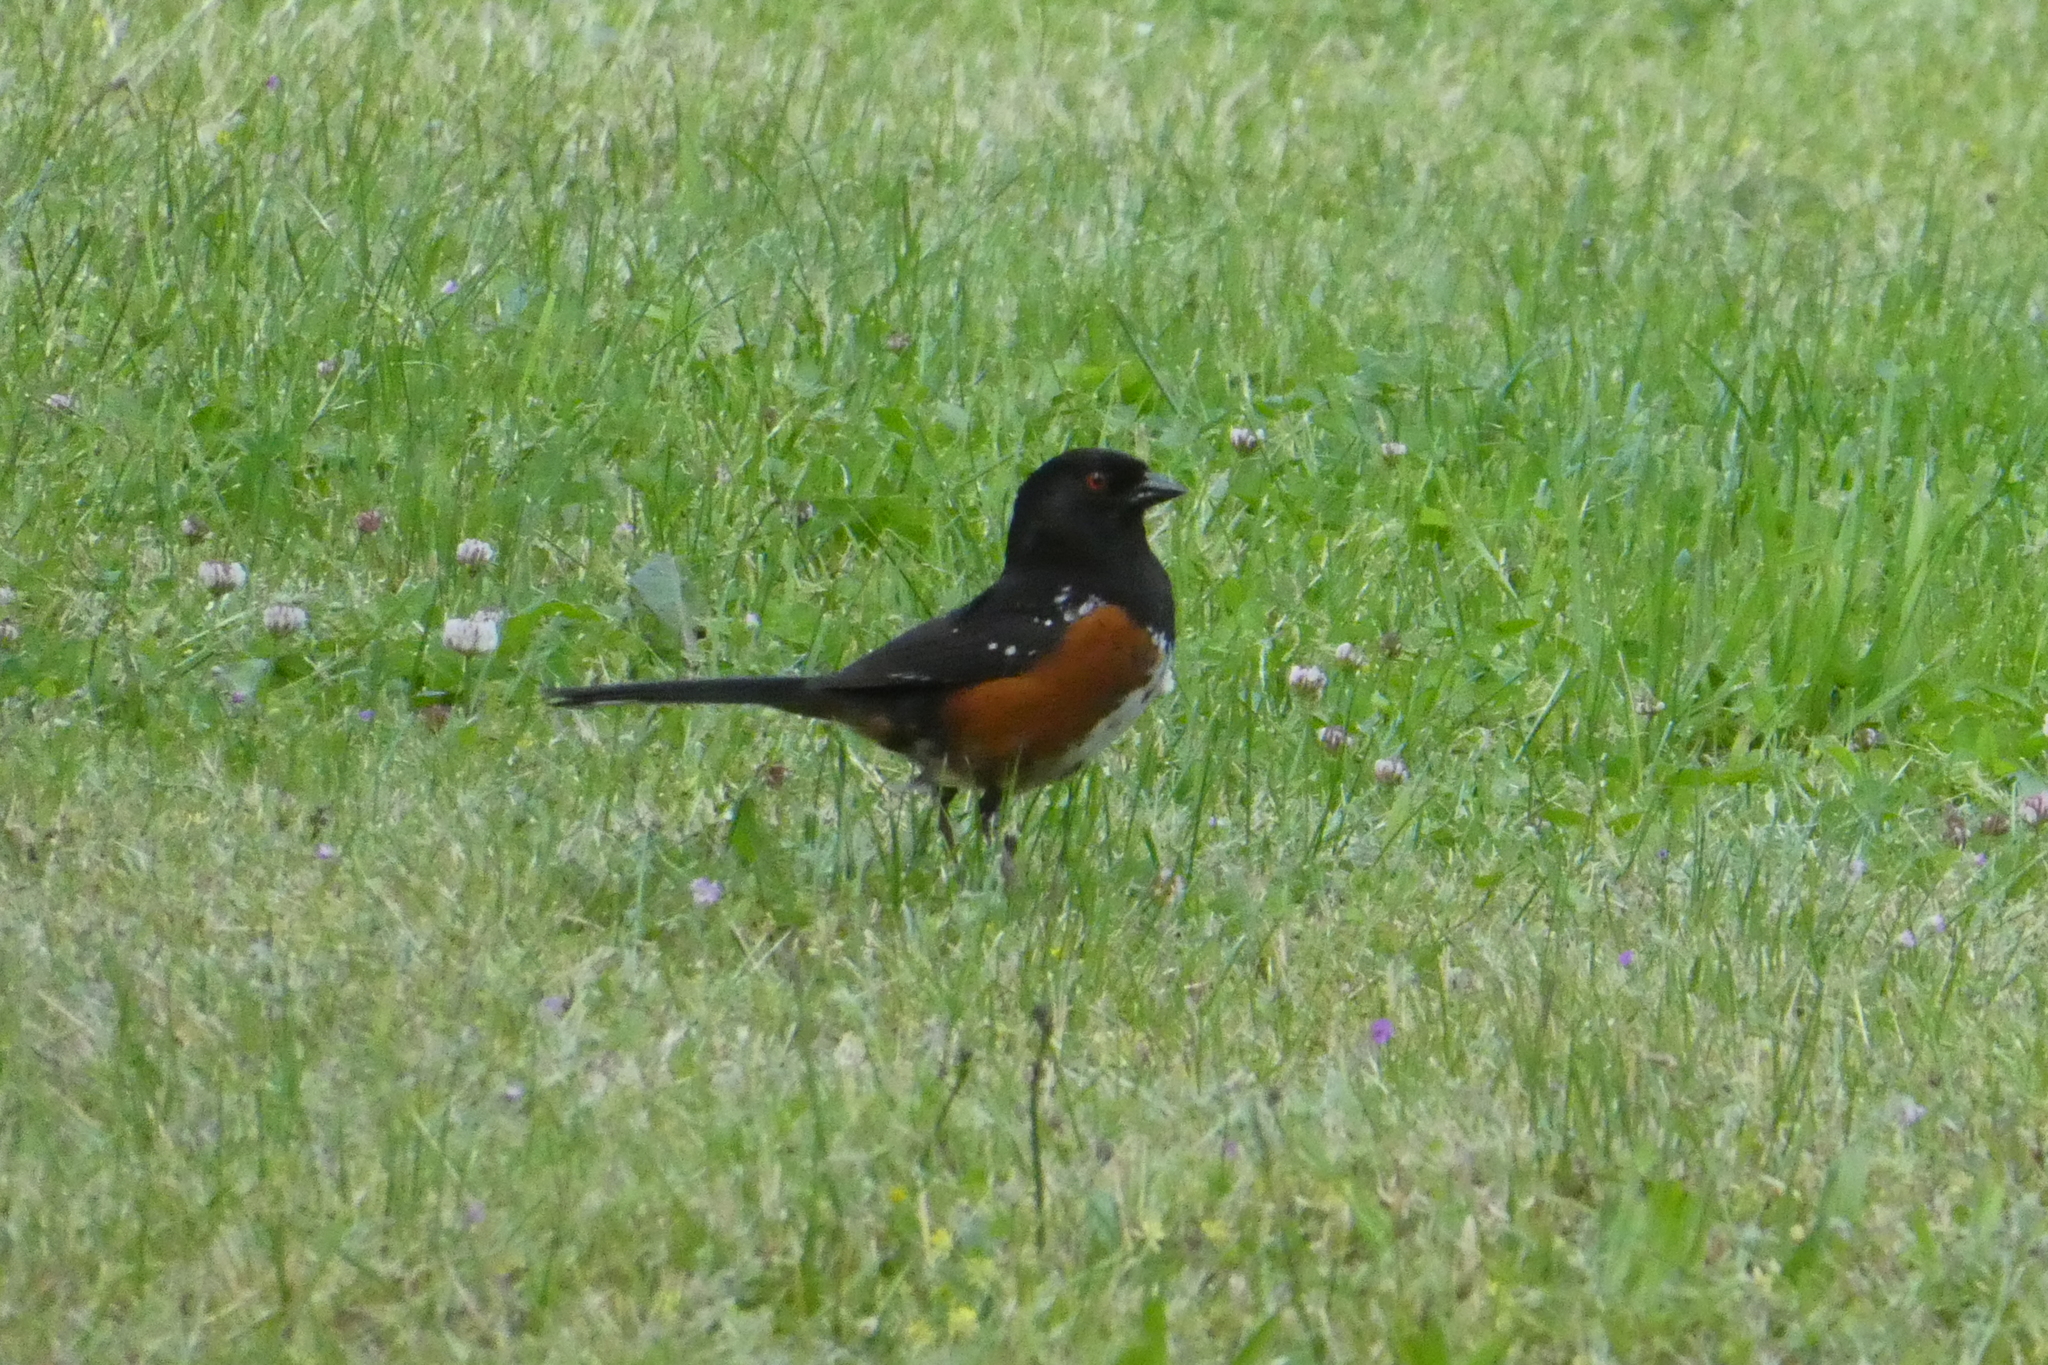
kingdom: Animalia
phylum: Chordata
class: Aves
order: Passeriformes
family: Passerellidae
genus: Pipilo
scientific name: Pipilo maculatus
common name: Spotted towhee
